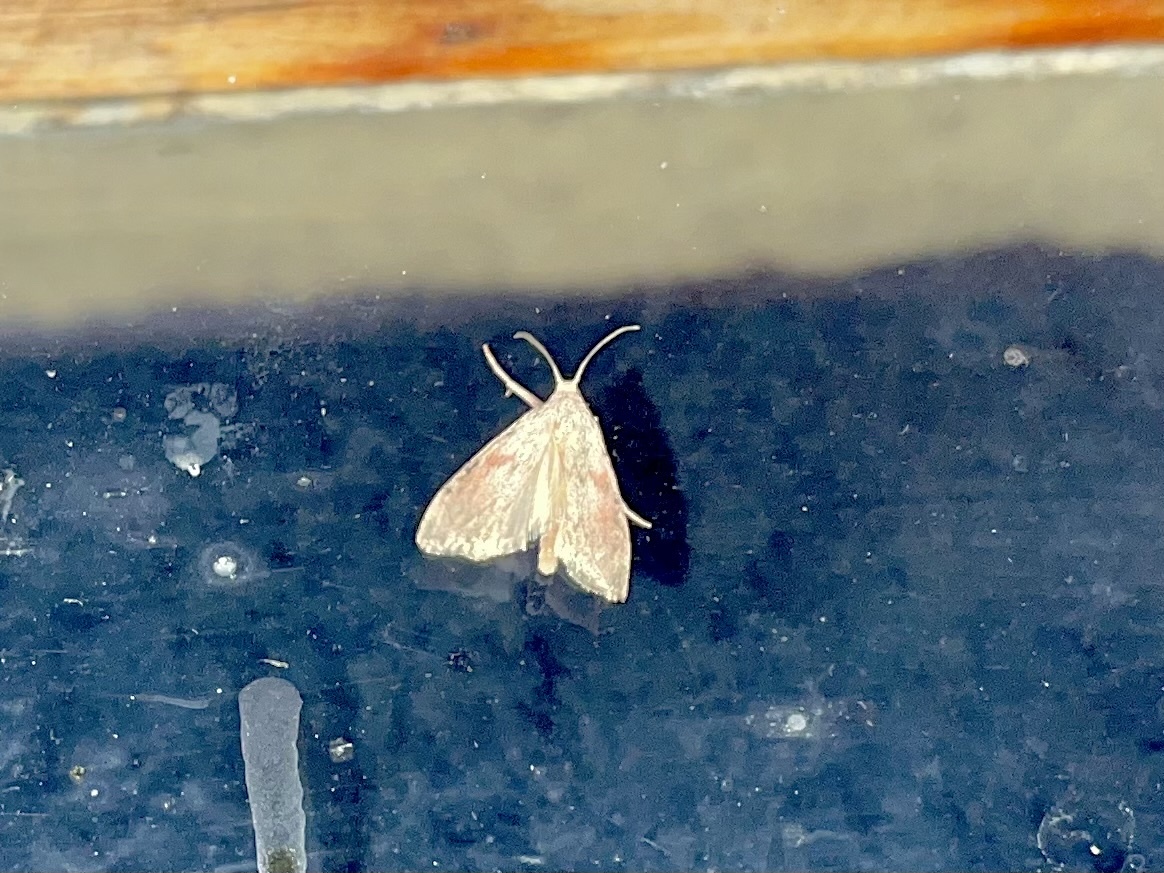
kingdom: Animalia
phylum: Arthropoda
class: Insecta
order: Lepidoptera
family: Pyralidae
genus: Aphomia
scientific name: Aphomia sociella
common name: Bee moth
